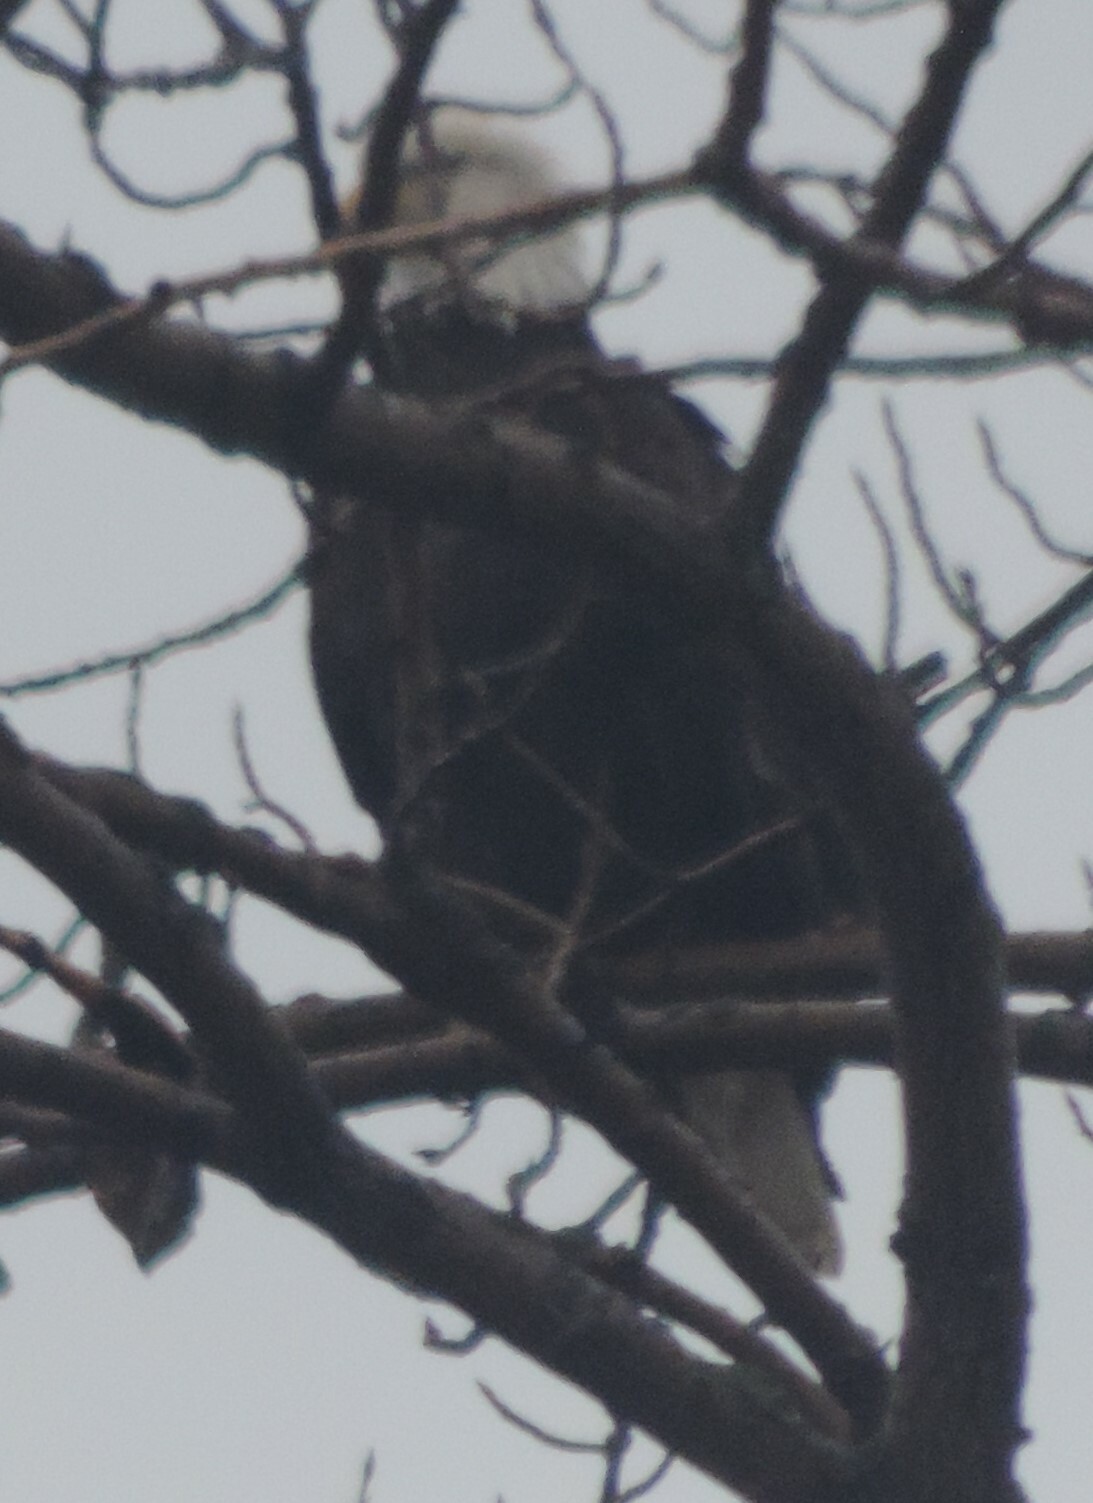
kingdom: Animalia
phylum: Chordata
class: Aves
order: Accipitriformes
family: Accipitridae
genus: Haliaeetus
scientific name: Haliaeetus leucocephalus
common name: Bald eagle
